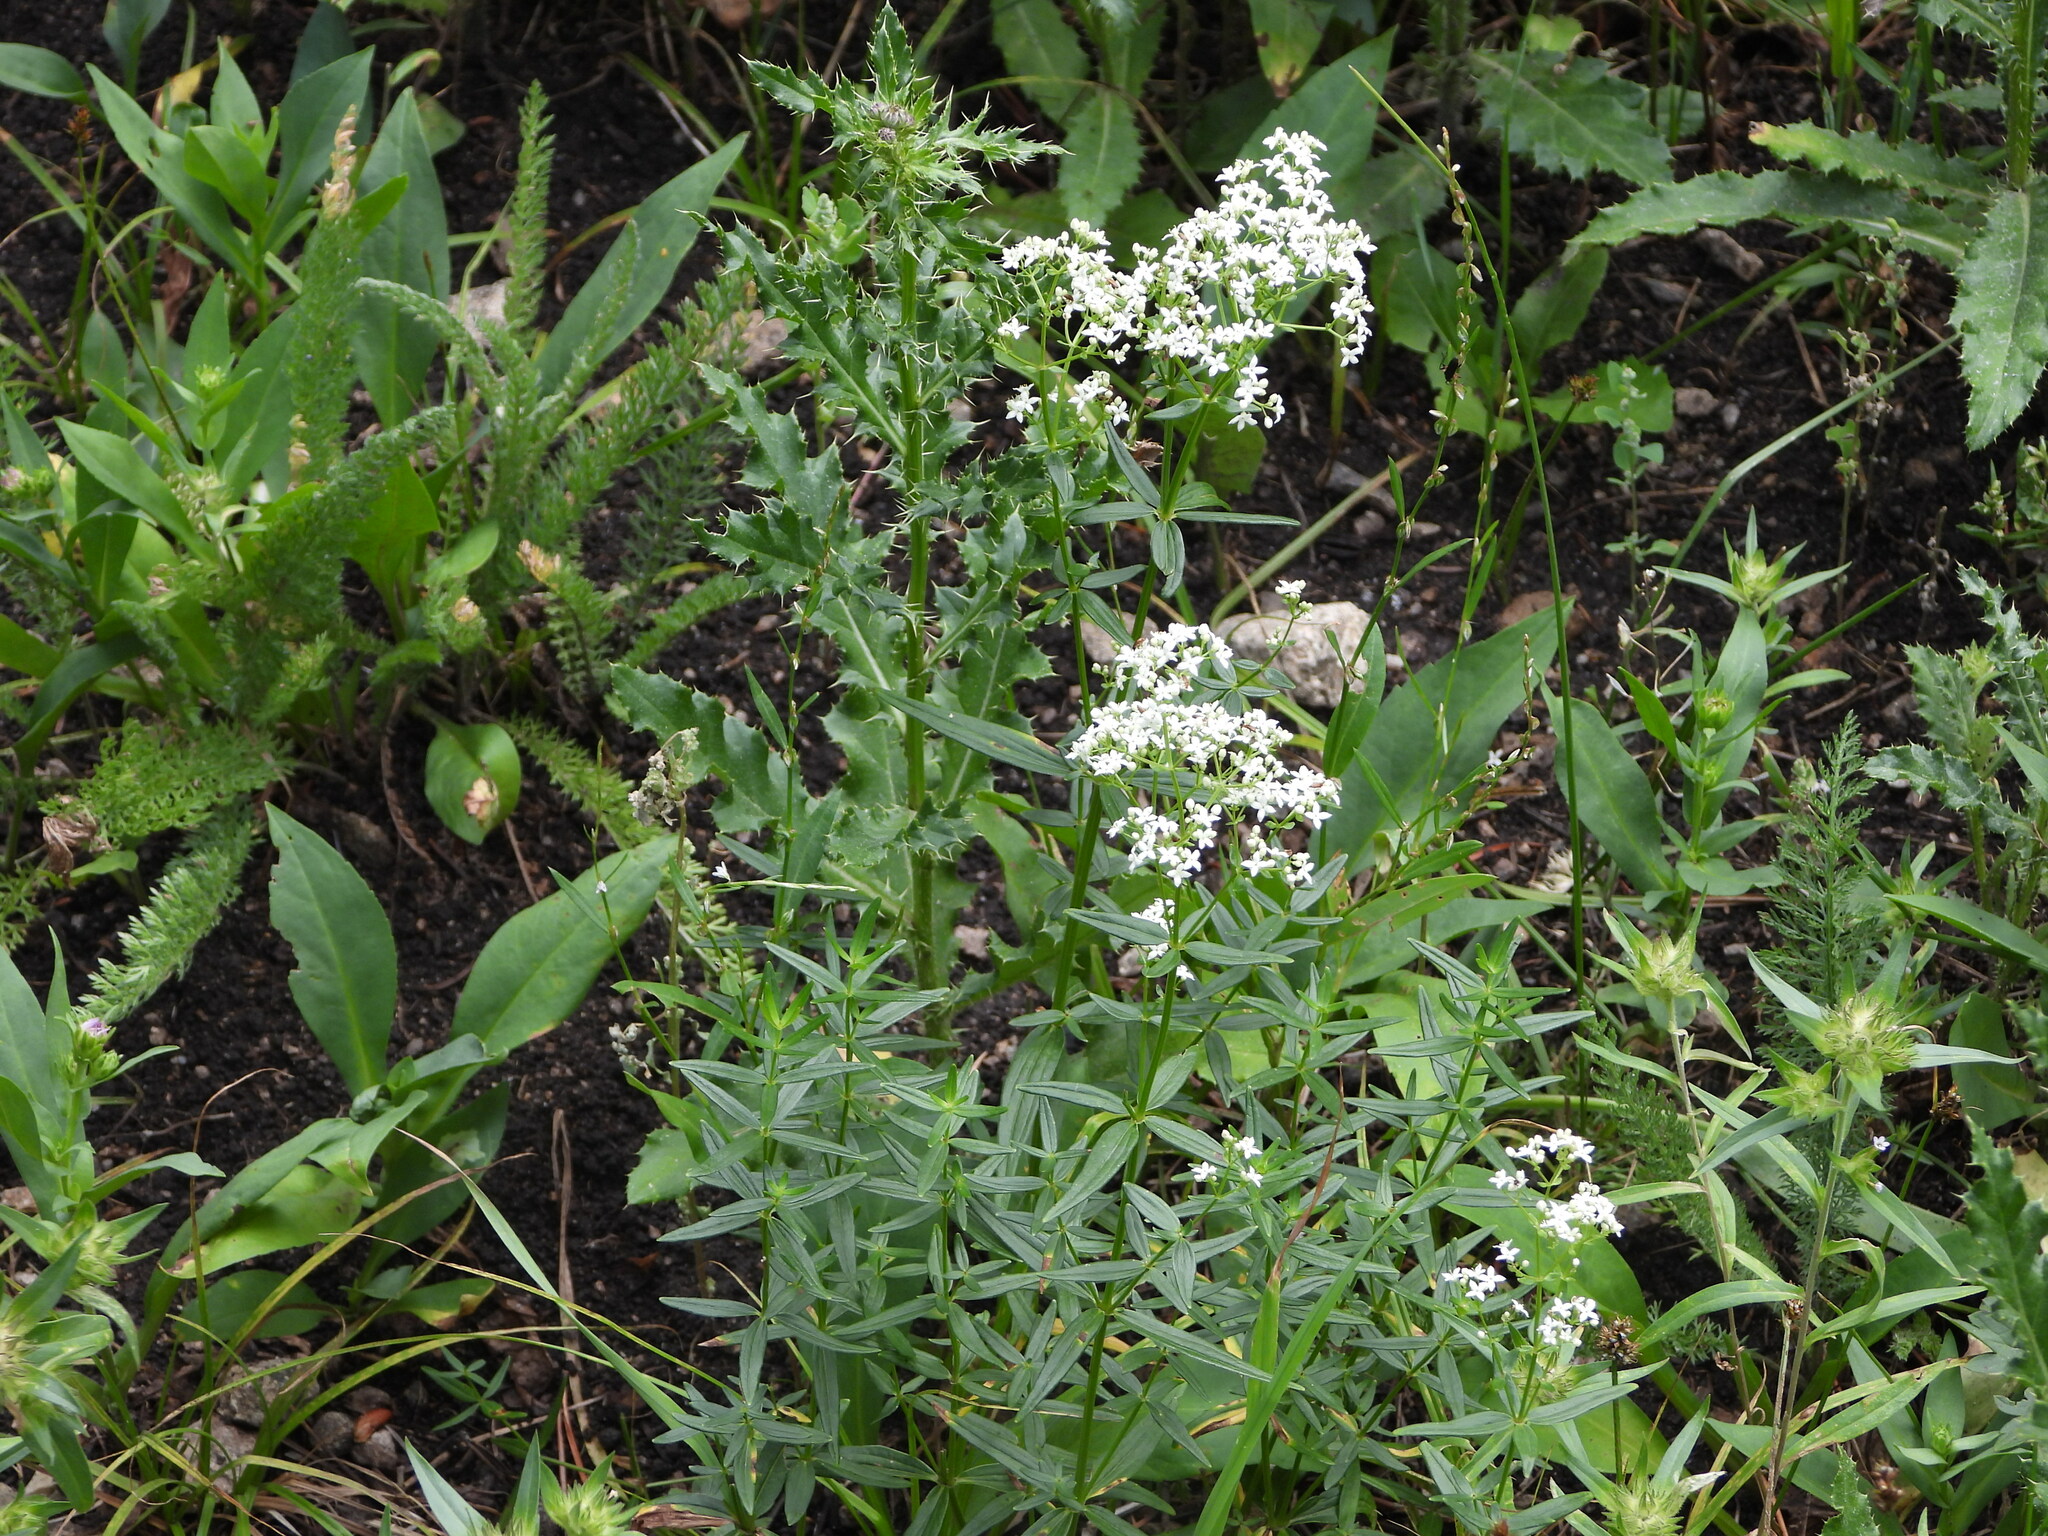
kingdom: Plantae
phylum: Tracheophyta
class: Magnoliopsida
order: Gentianales
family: Rubiaceae
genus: Galium
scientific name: Galium boreale
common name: Northern bedstraw
